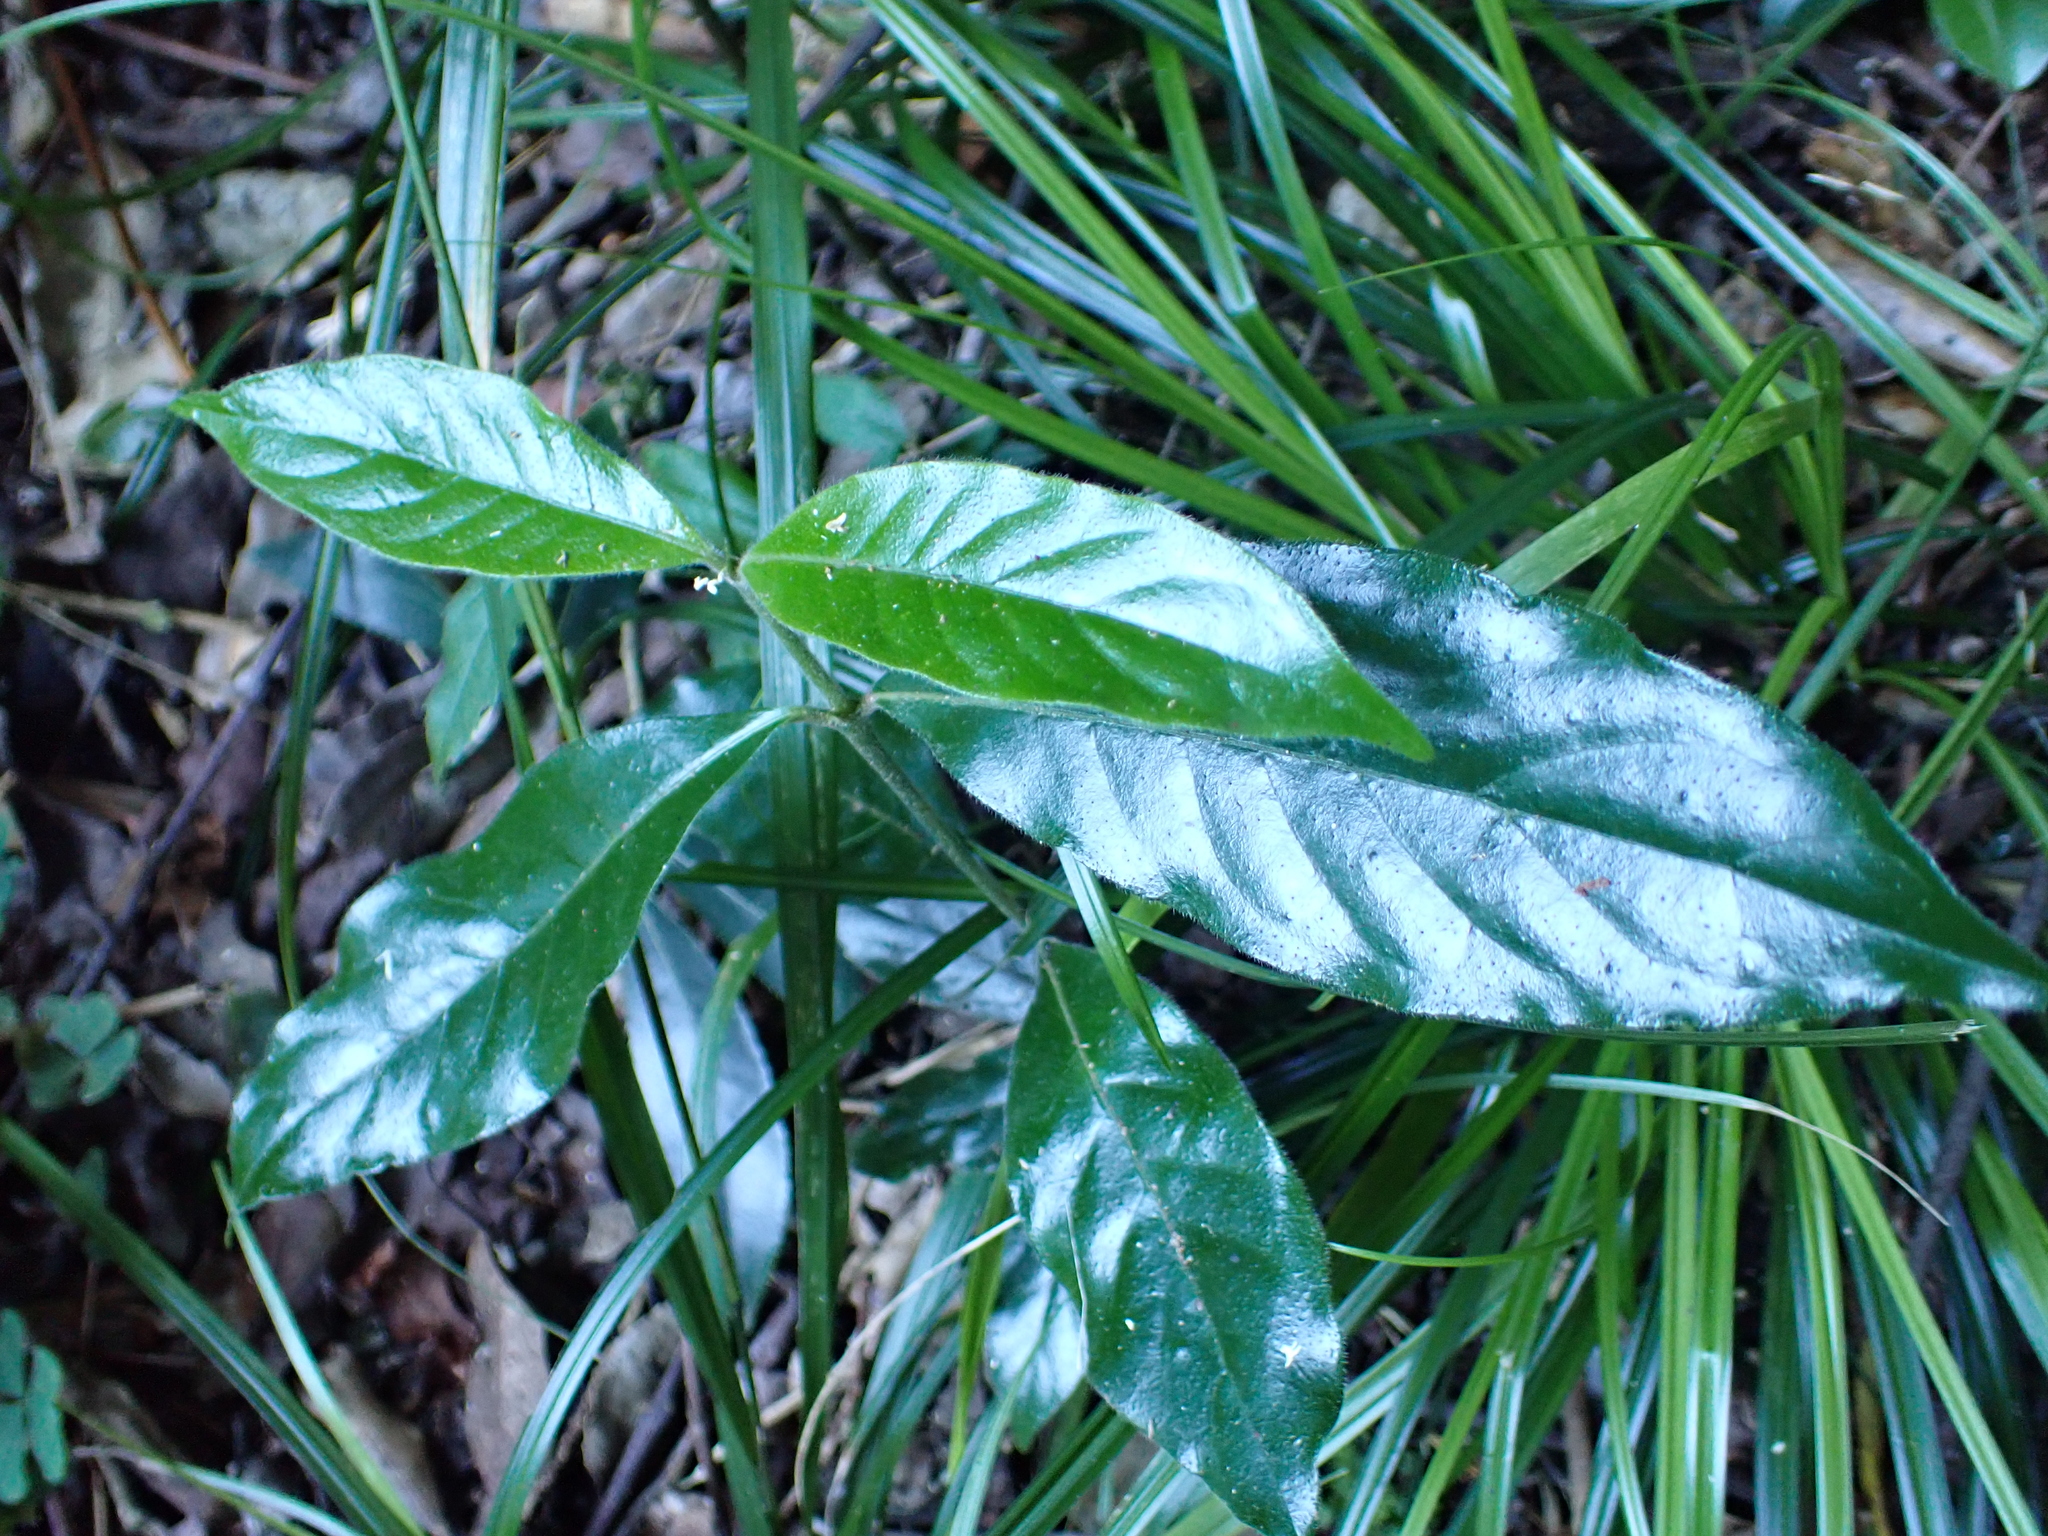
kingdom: Plantae
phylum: Tracheophyta
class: Magnoliopsida
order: Gentianales
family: Rubiaceae
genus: Rothmannia
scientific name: Rothmannia capensis
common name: Cape gardenia
